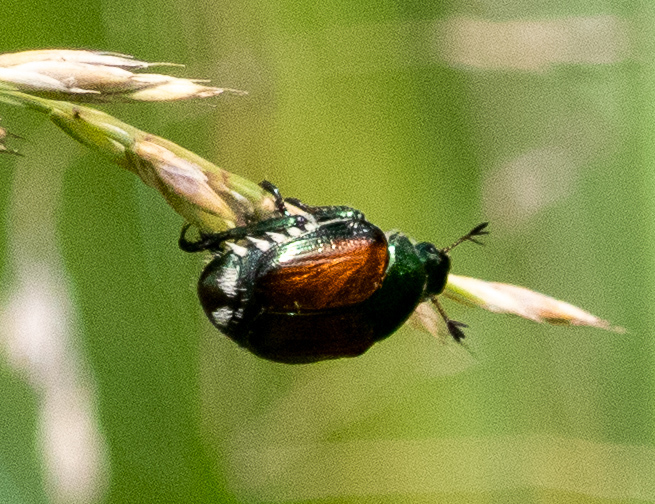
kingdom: Animalia
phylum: Arthropoda
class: Insecta
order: Coleoptera
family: Scarabaeidae
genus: Popillia
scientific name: Popillia japonica
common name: Japanese beetle
